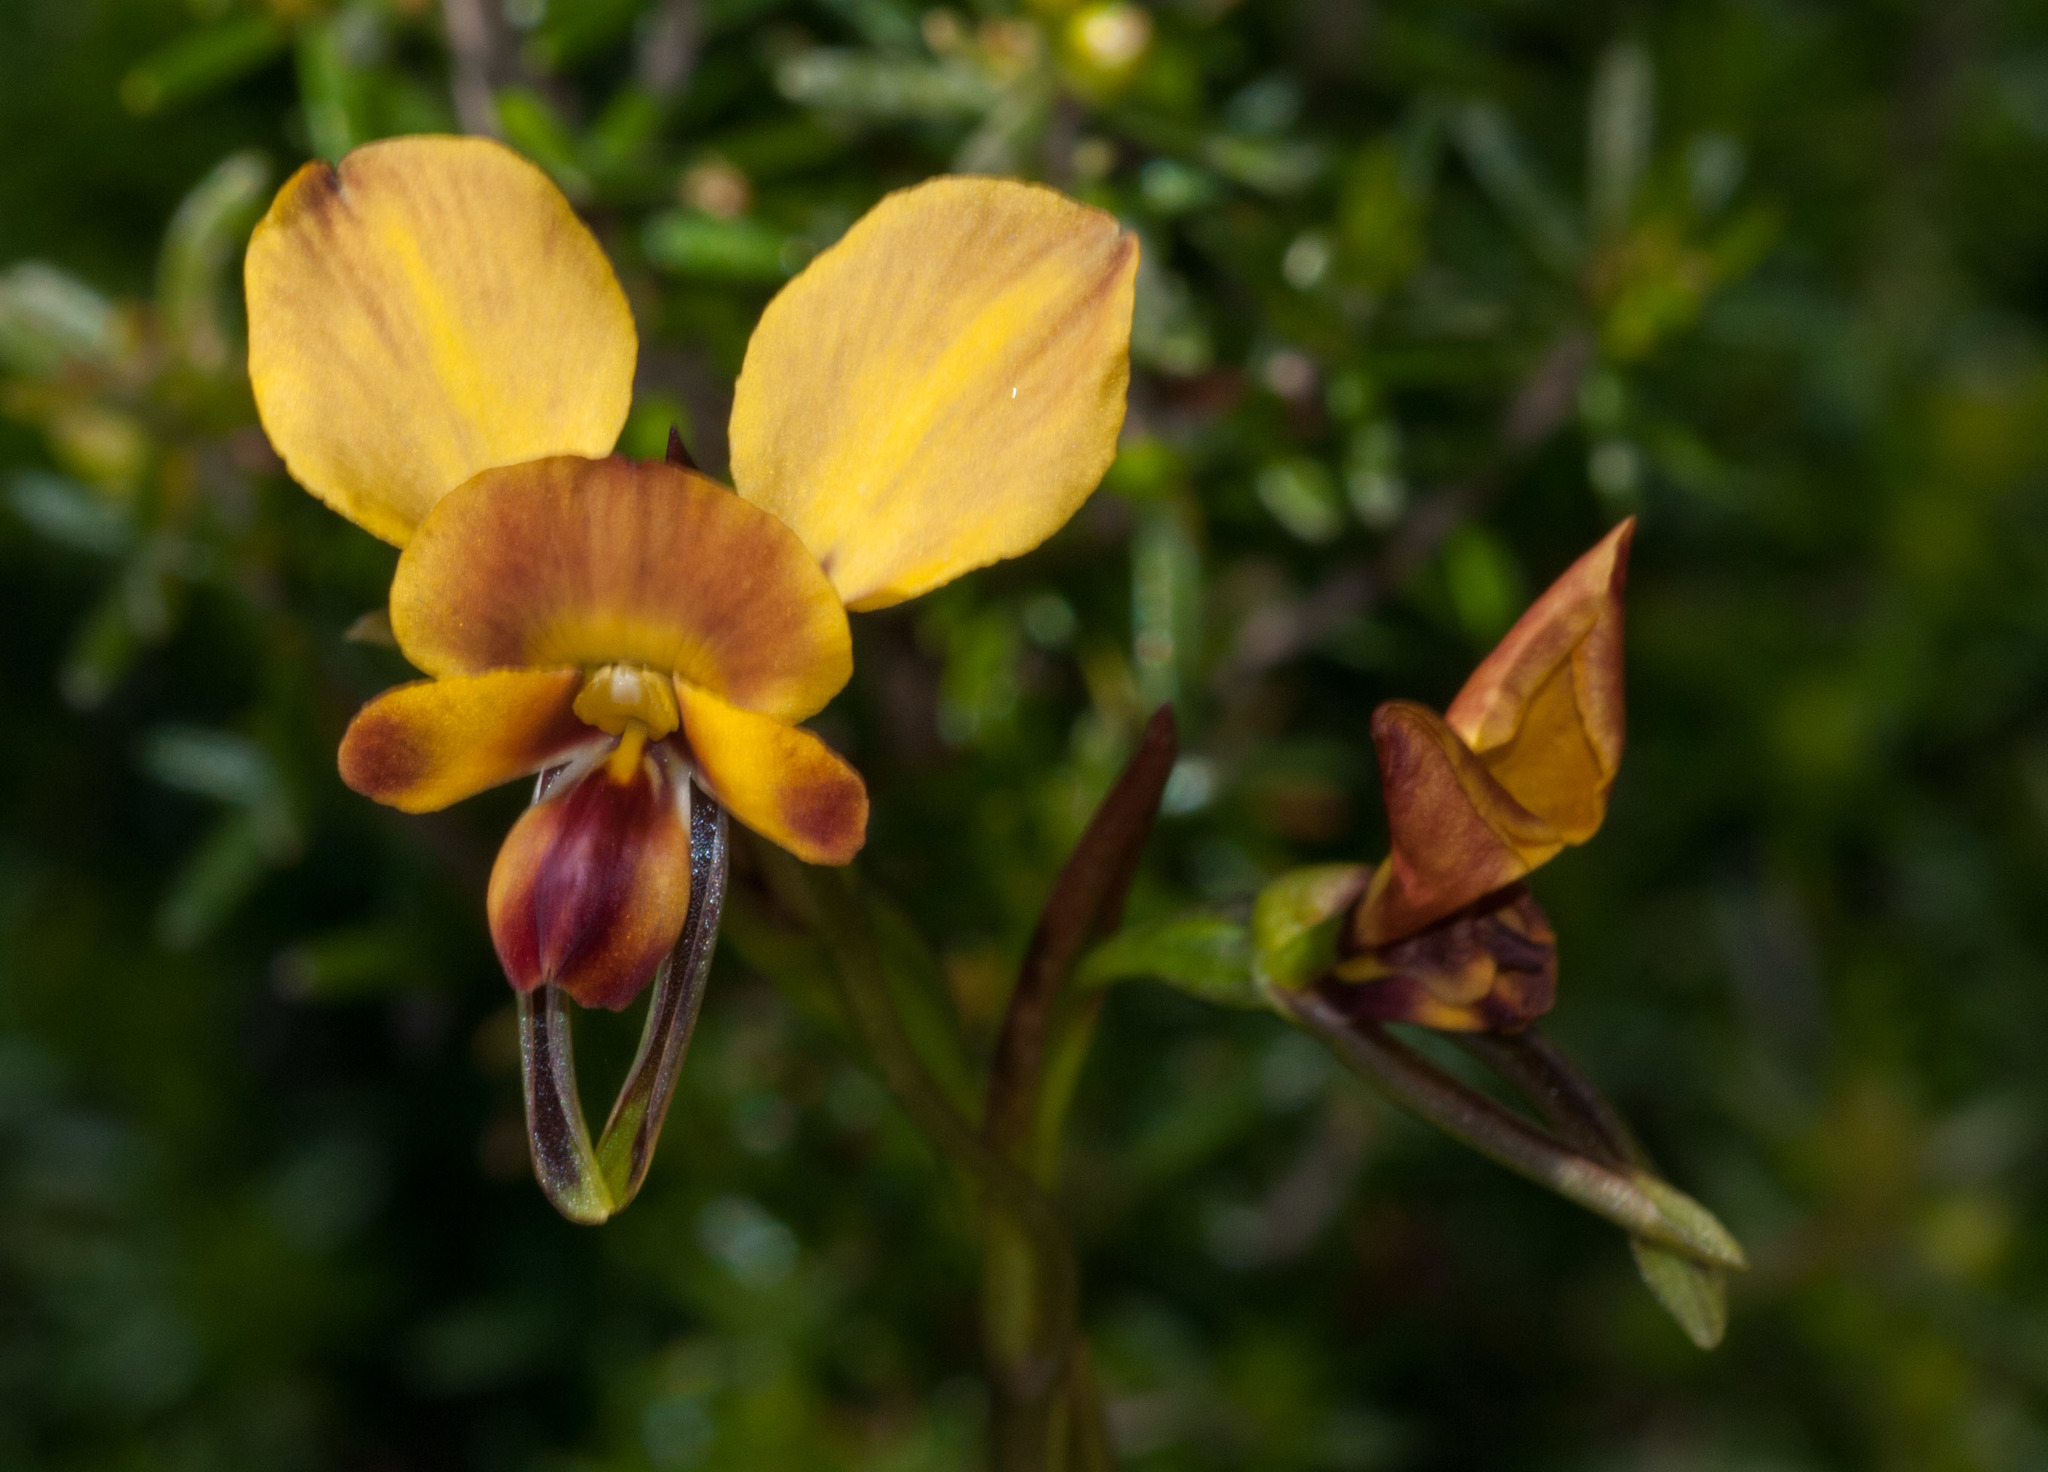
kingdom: Plantae
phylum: Tracheophyta
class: Liliopsida
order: Asparagales
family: Orchidaceae
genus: Diuris
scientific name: Diuris orientis
